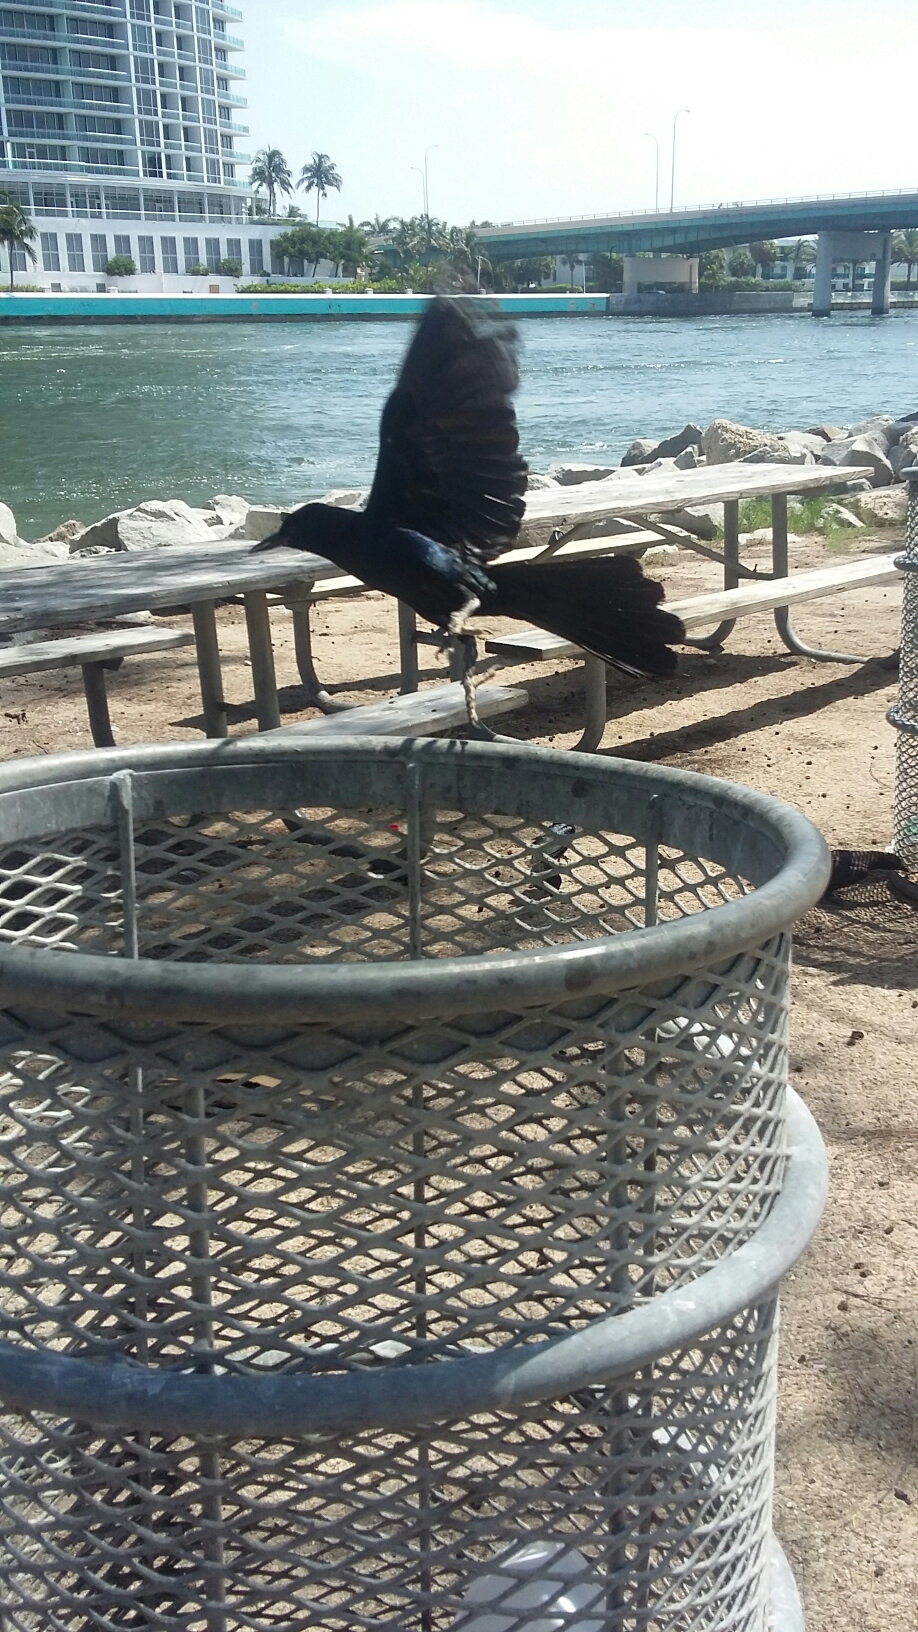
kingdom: Animalia
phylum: Chordata
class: Aves
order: Passeriformes
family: Icteridae
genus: Quiscalus
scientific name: Quiscalus major
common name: Boat-tailed grackle
